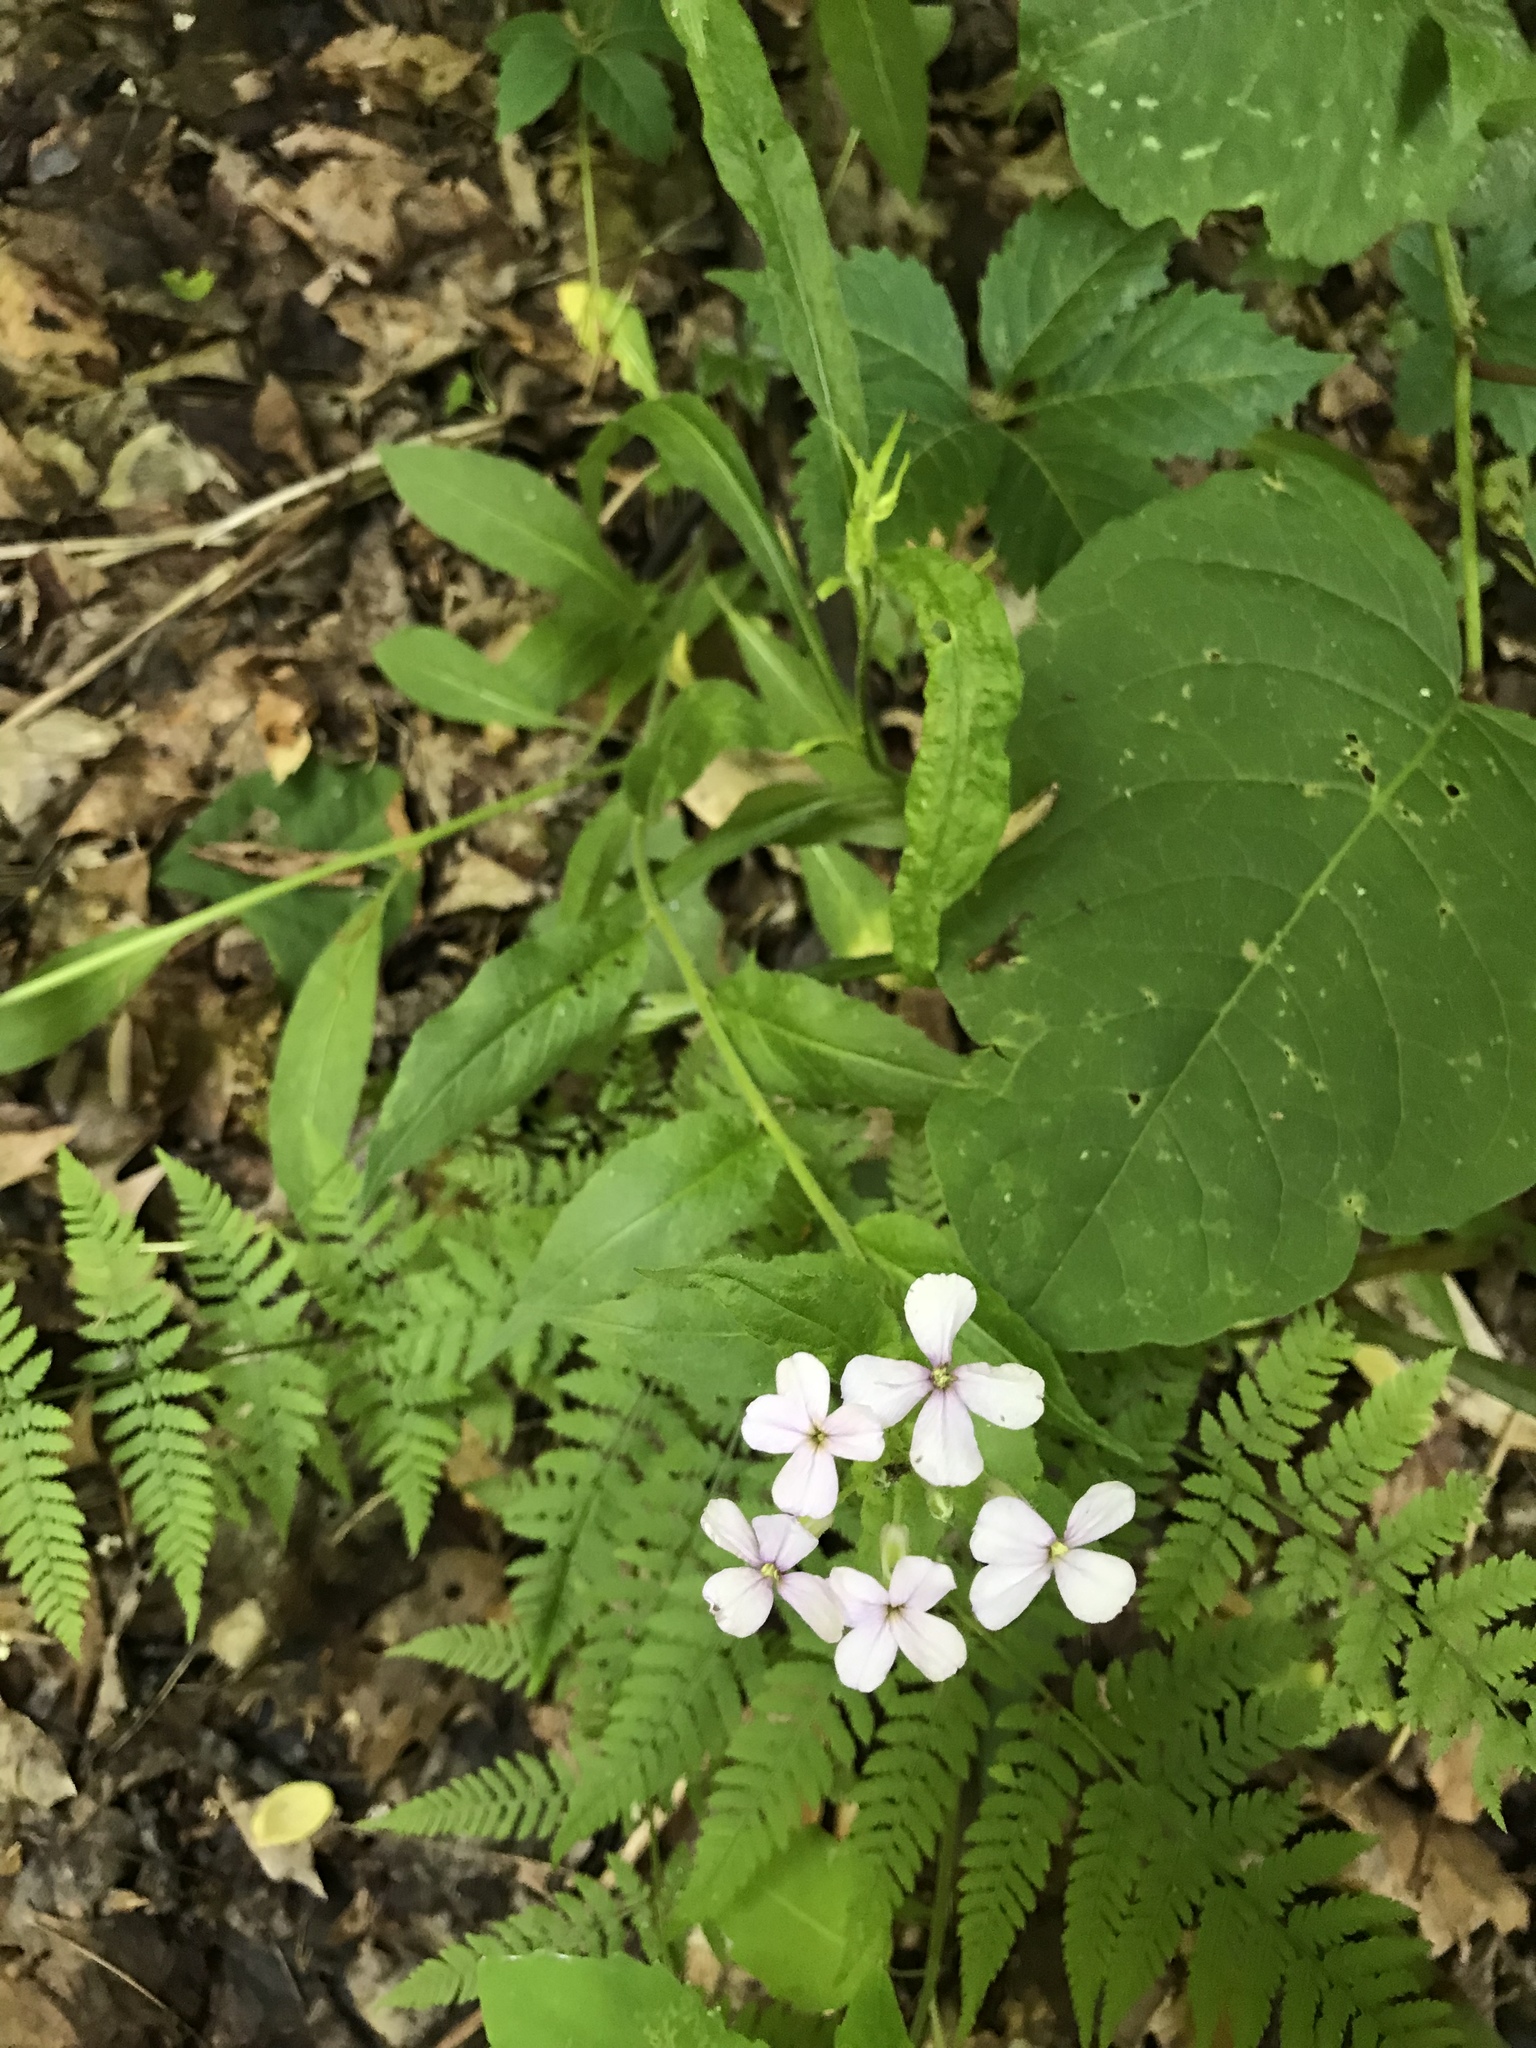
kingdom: Plantae
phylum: Tracheophyta
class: Magnoliopsida
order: Brassicales
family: Brassicaceae
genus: Hesperis
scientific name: Hesperis matronalis
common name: Dame's-violet
